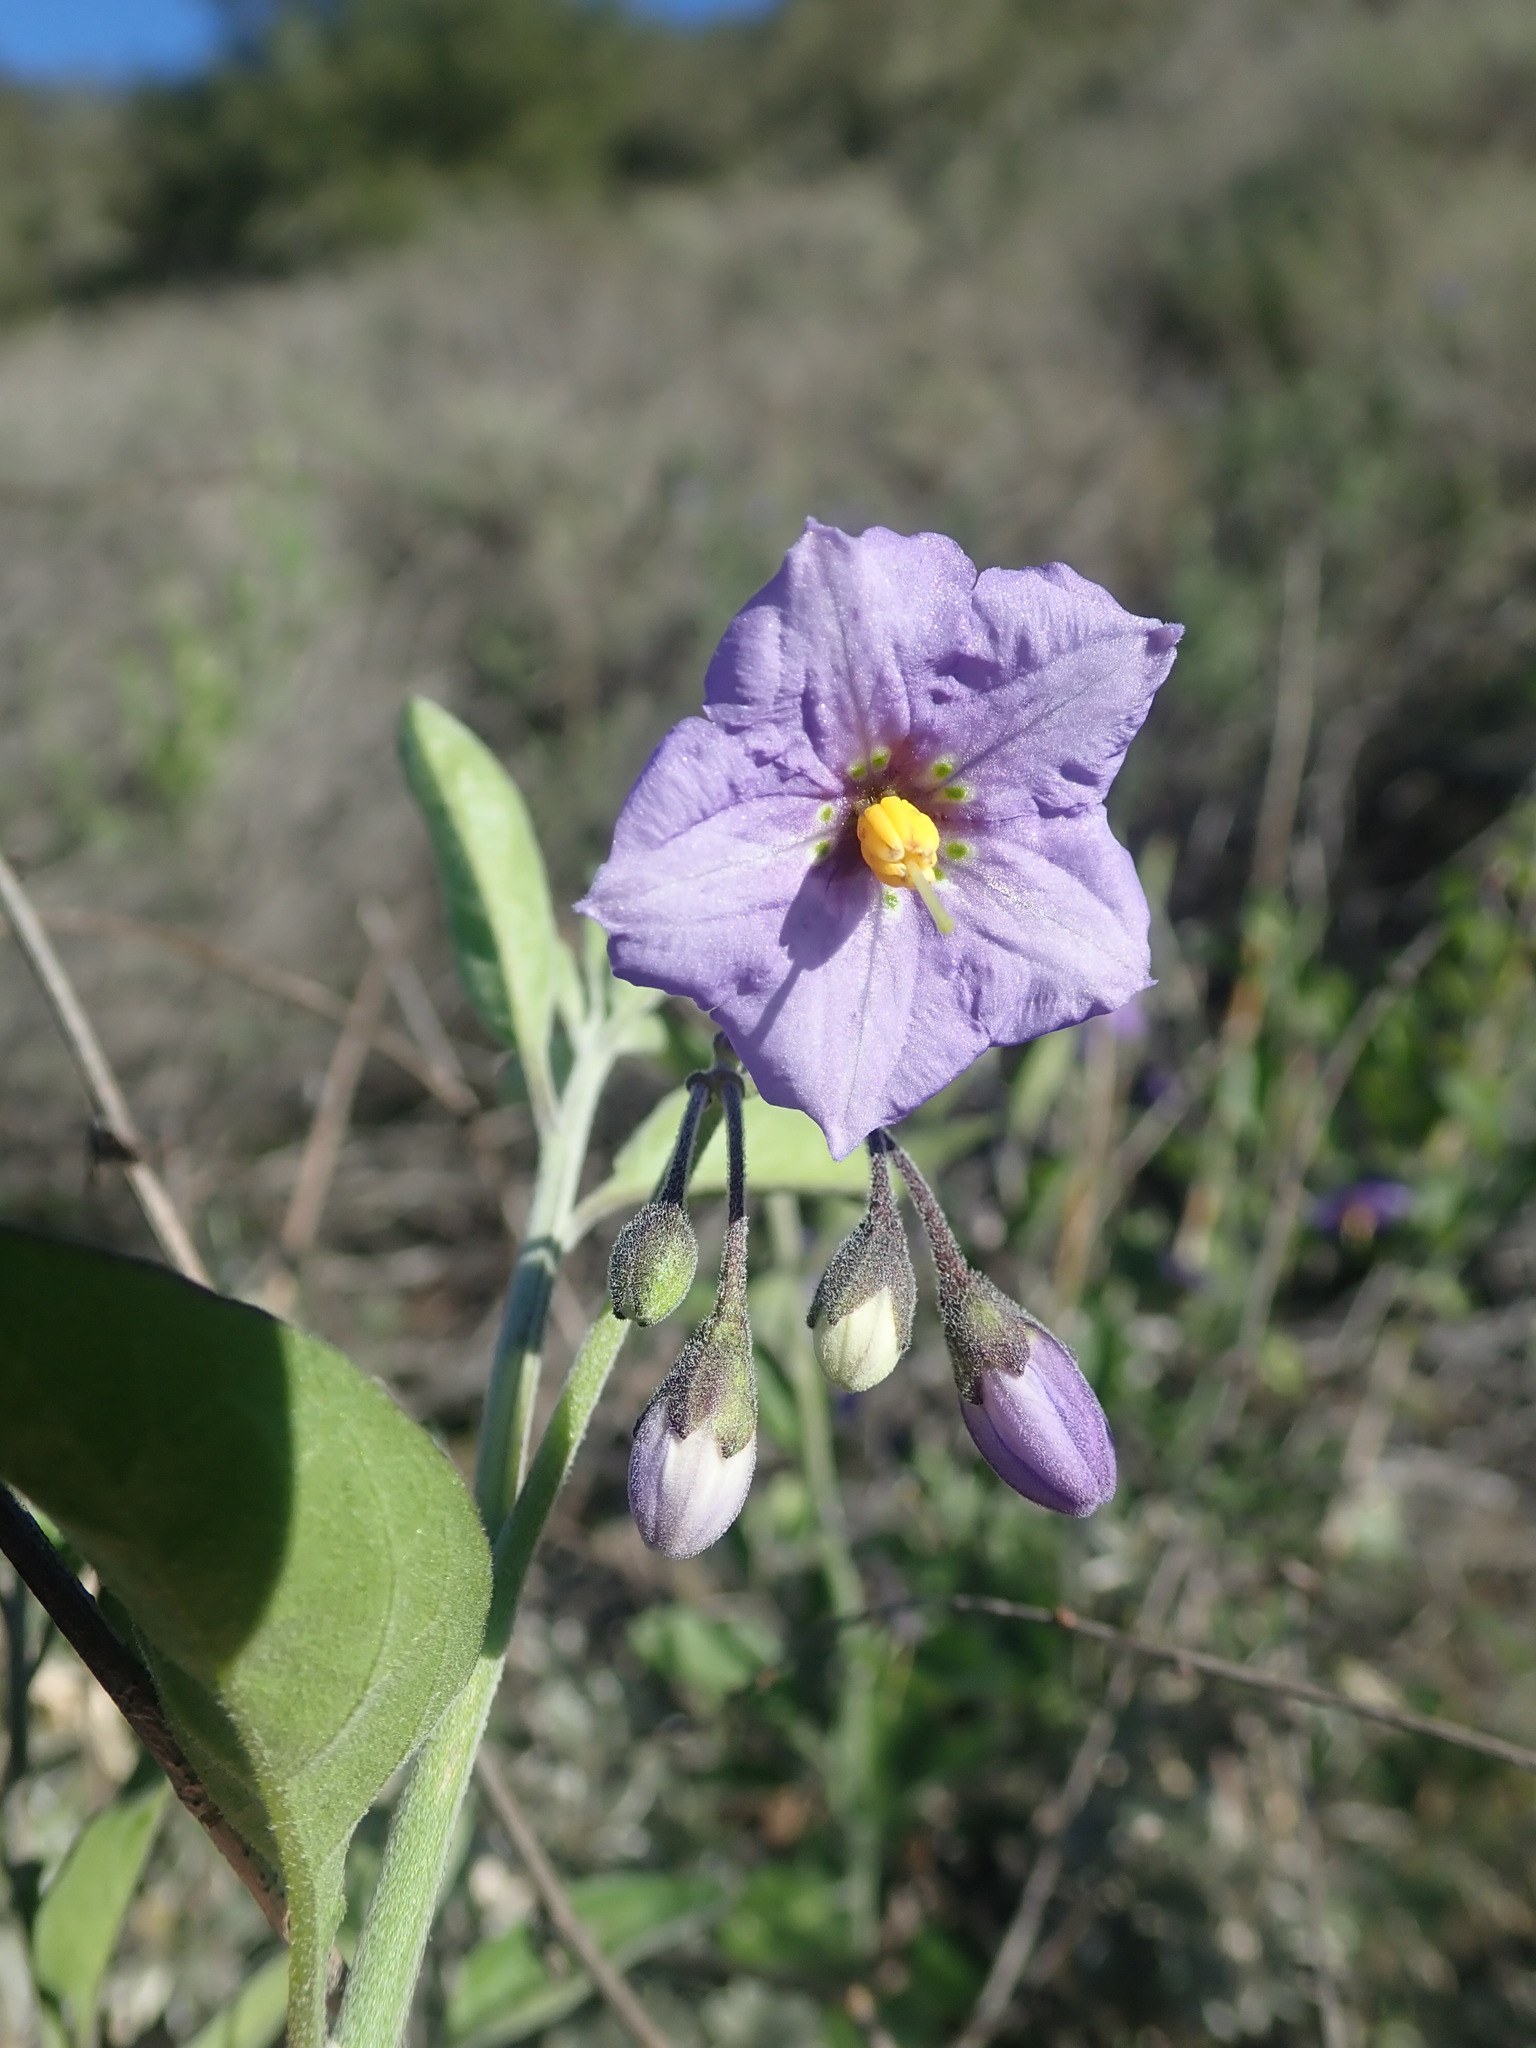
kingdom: Plantae
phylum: Tracheophyta
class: Magnoliopsida
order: Solanales
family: Solanaceae
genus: Solanum
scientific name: Solanum umbelliferum
